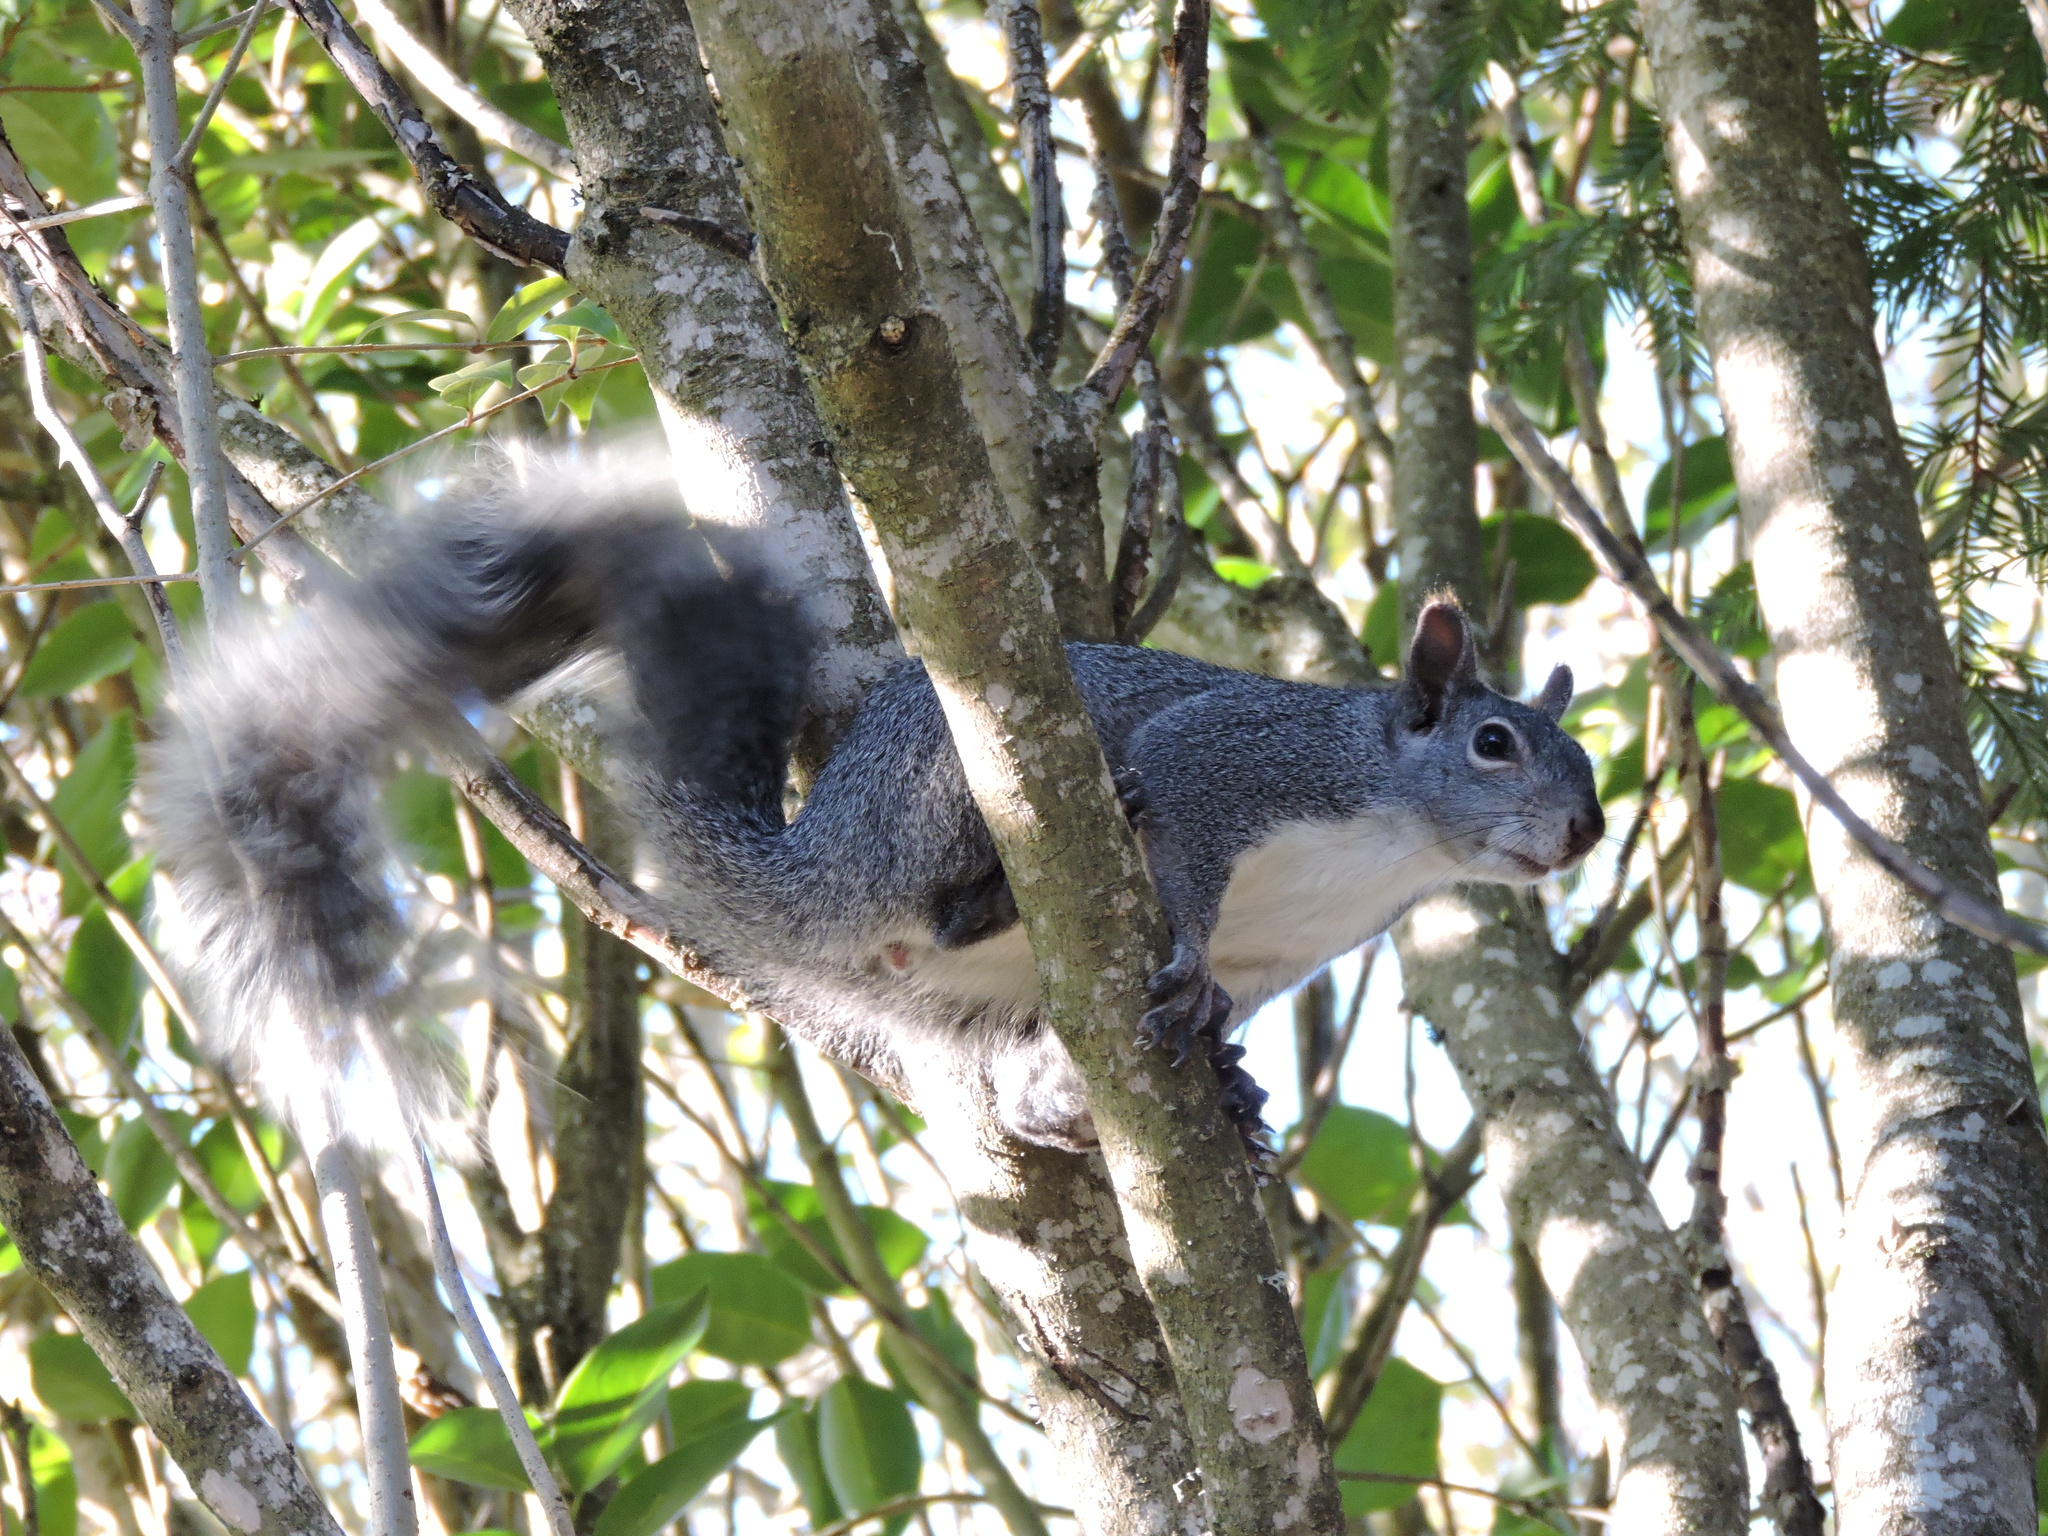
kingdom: Animalia
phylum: Chordata
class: Mammalia
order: Rodentia
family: Sciuridae
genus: Sciurus
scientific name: Sciurus griseus
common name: Western gray squirrel
